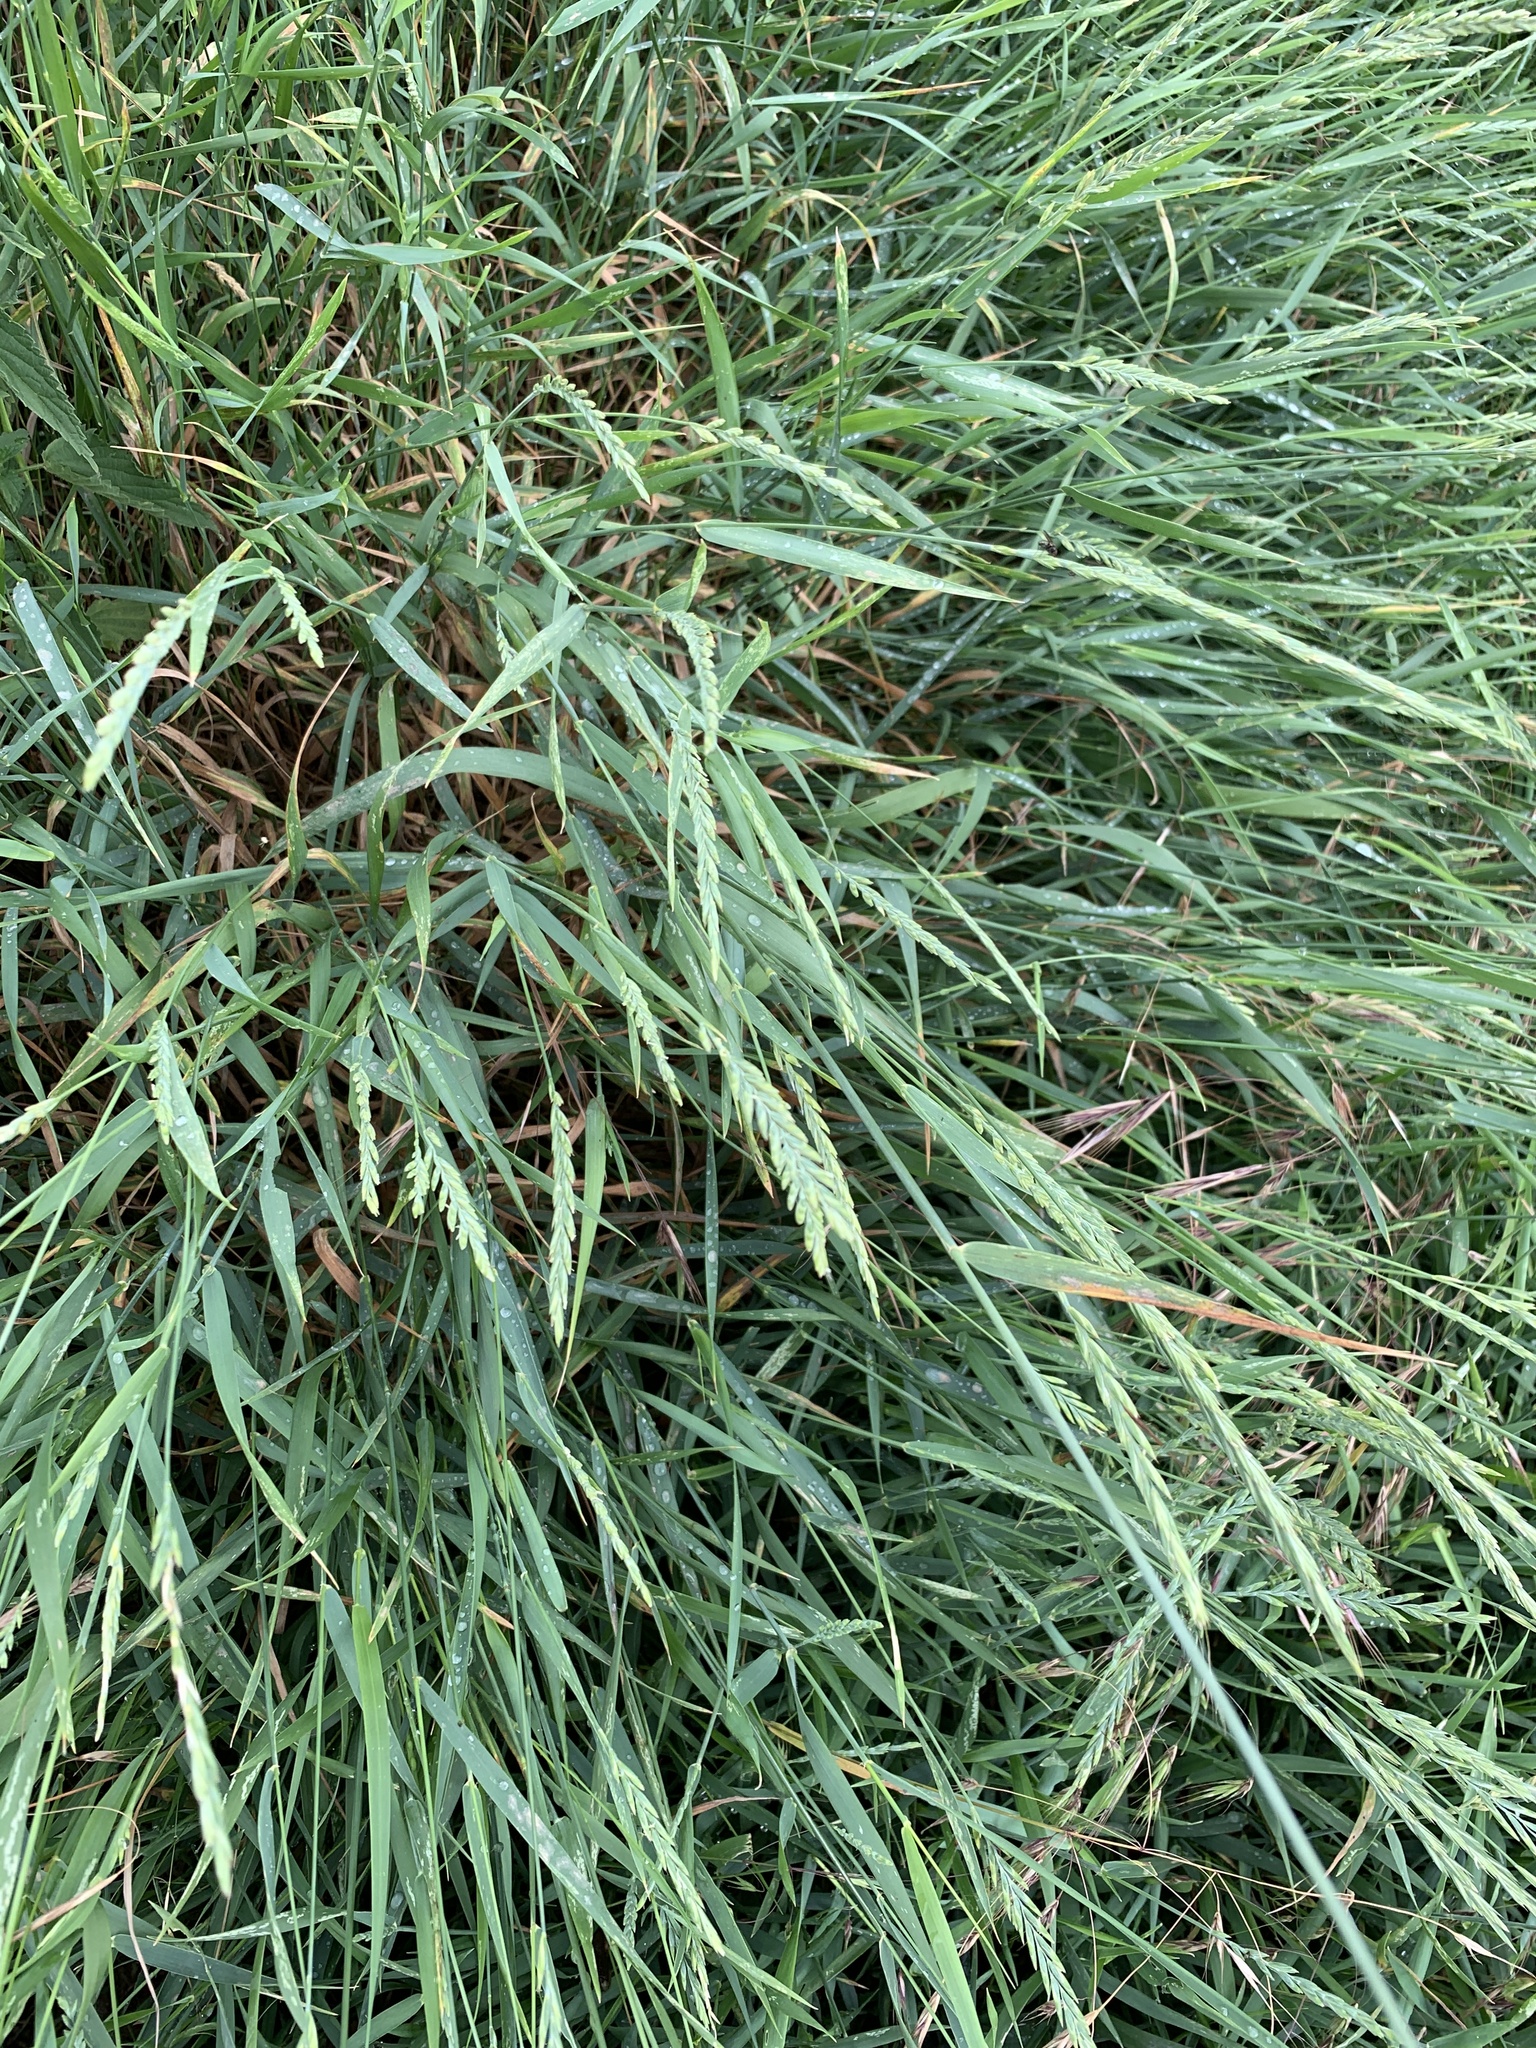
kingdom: Plantae
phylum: Tracheophyta
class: Liliopsida
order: Poales
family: Poaceae
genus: Elymus
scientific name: Elymus repens
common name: Quackgrass
